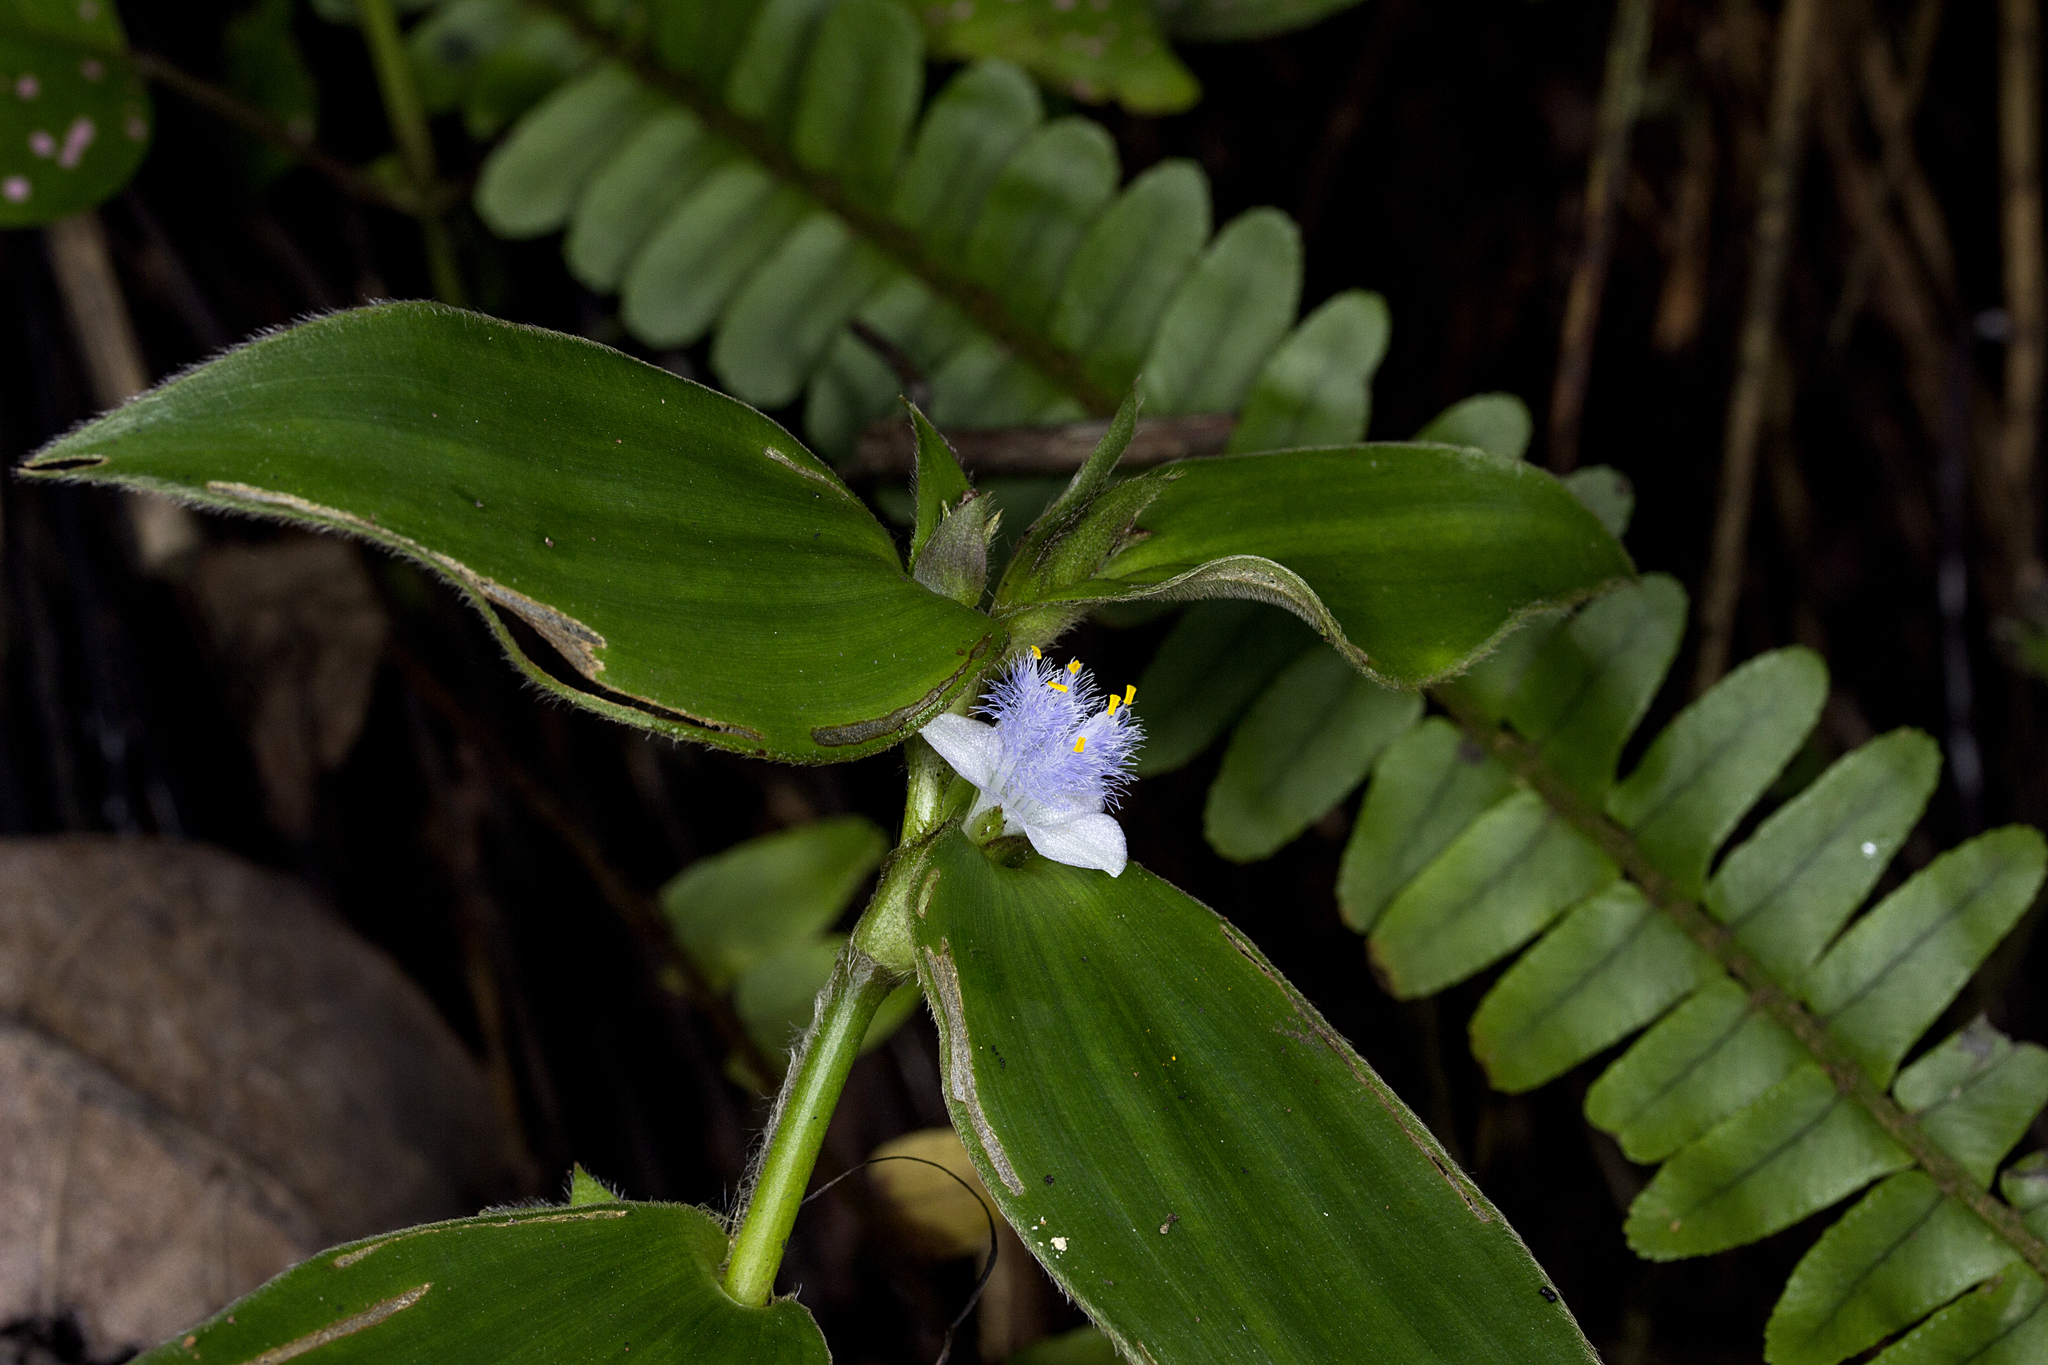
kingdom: Plantae
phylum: Tracheophyta
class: Liliopsida
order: Commelinales
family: Commelinaceae
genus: Cyanotis
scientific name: Cyanotis villosa
